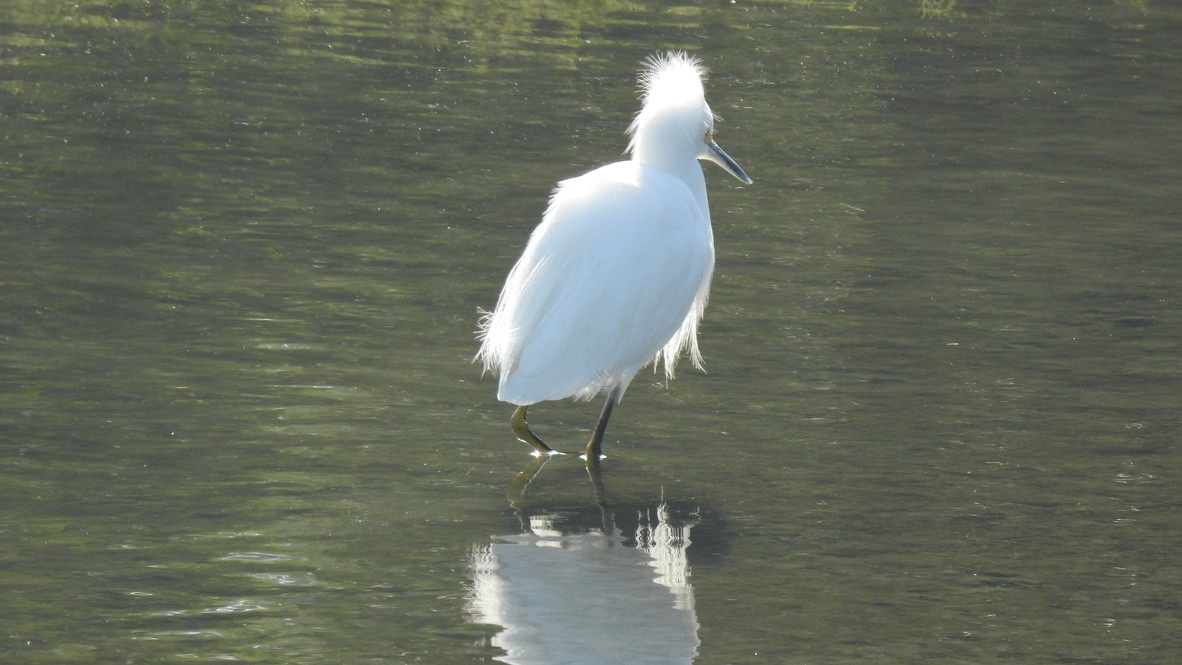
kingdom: Animalia
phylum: Chordata
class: Aves
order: Pelecaniformes
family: Ardeidae
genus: Egretta
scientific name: Egretta thula
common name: Snowy egret
